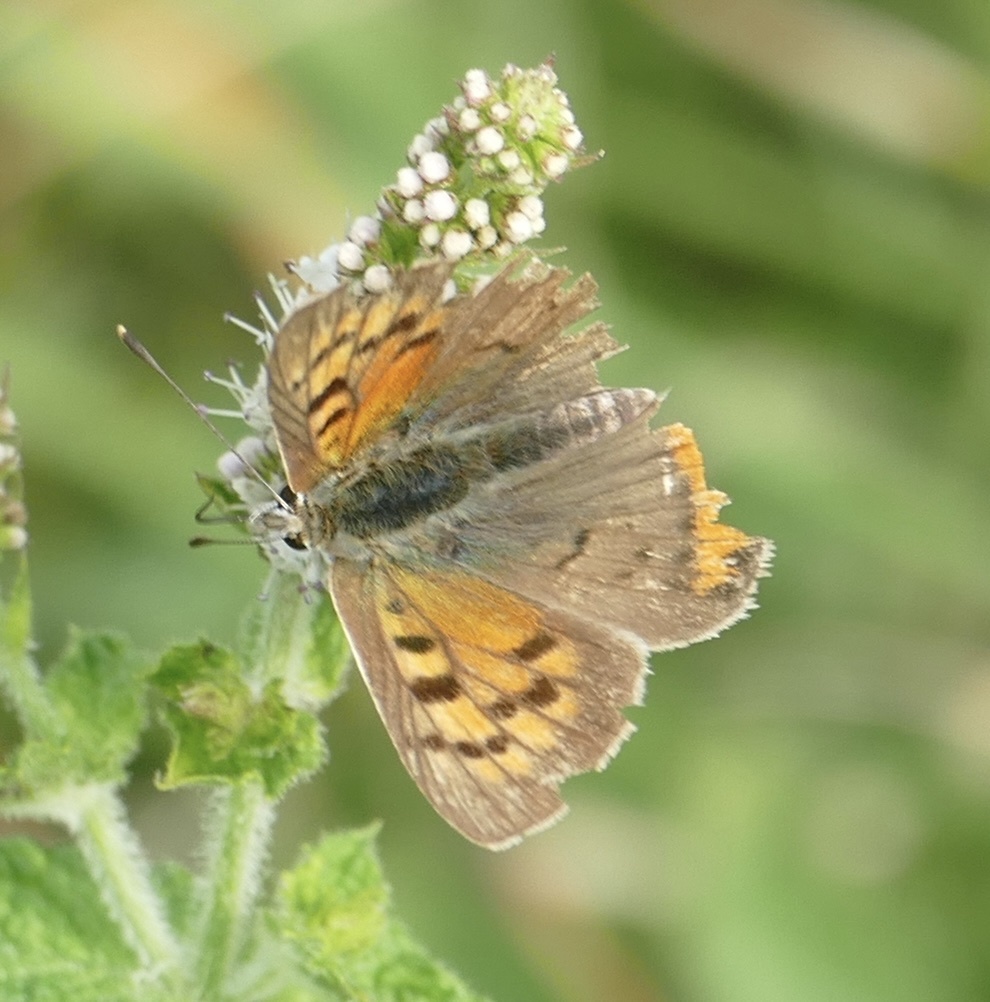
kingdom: Animalia
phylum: Arthropoda
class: Insecta
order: Lepidoptera
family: Lycaenidae
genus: Lycaena
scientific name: Lycaena phlaeas
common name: Small copper
